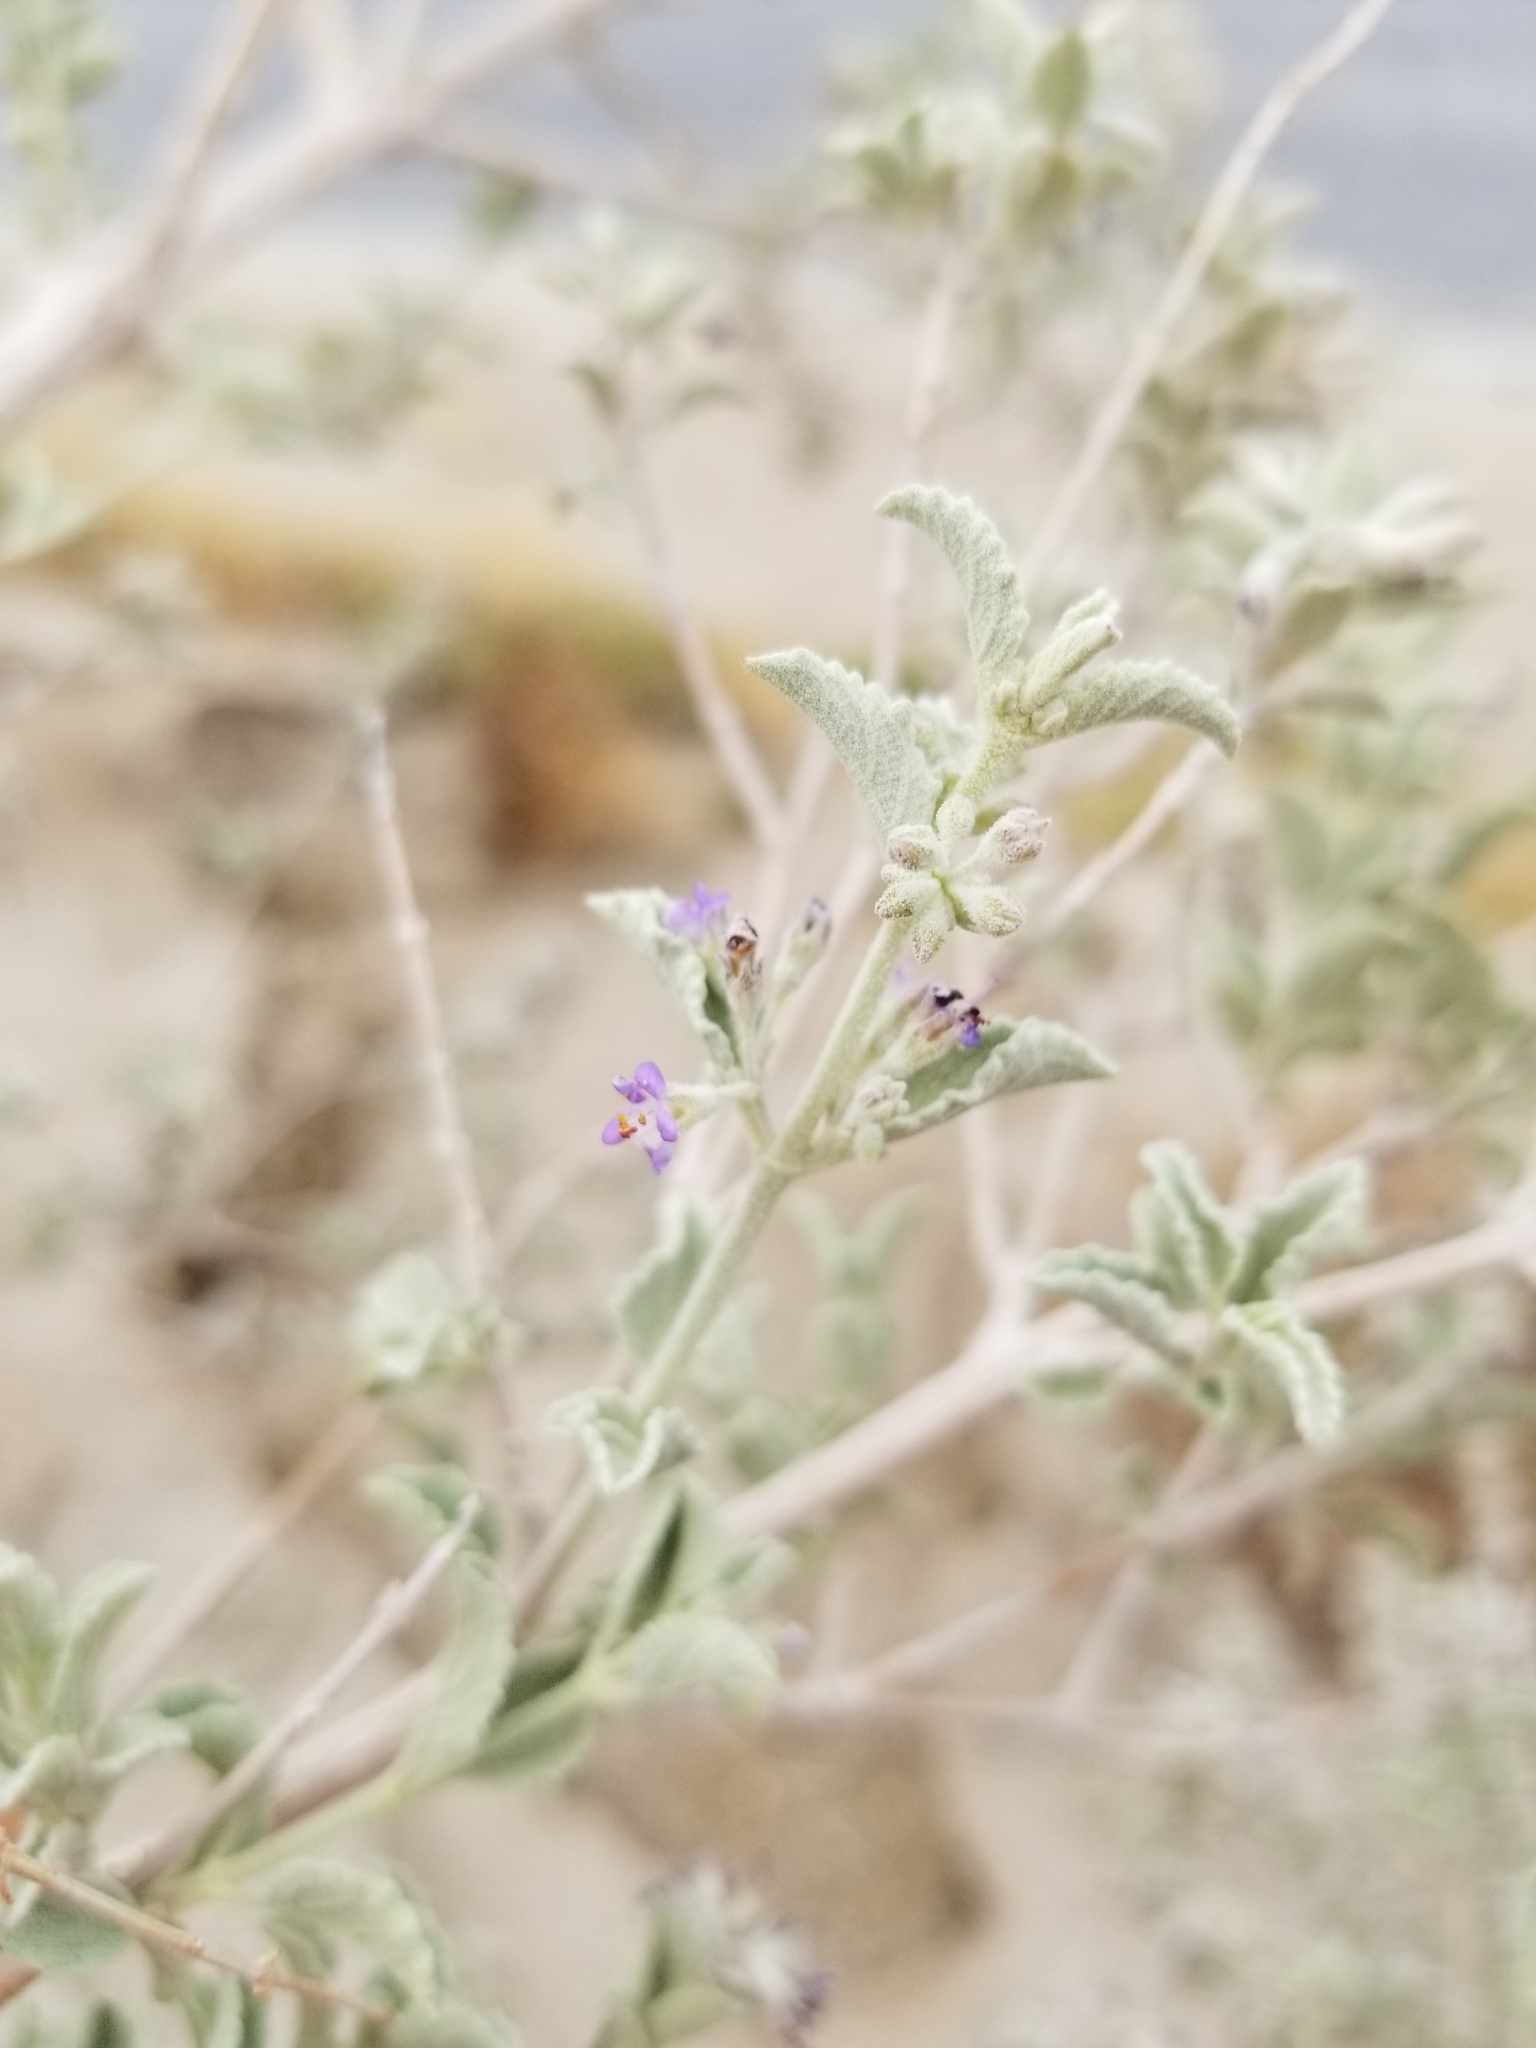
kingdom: Plantae
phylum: Tracheophyta
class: Magnoliopsida
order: Lamiales
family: Lamiaceae
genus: Condea
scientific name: Condea emoryi
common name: Chia
